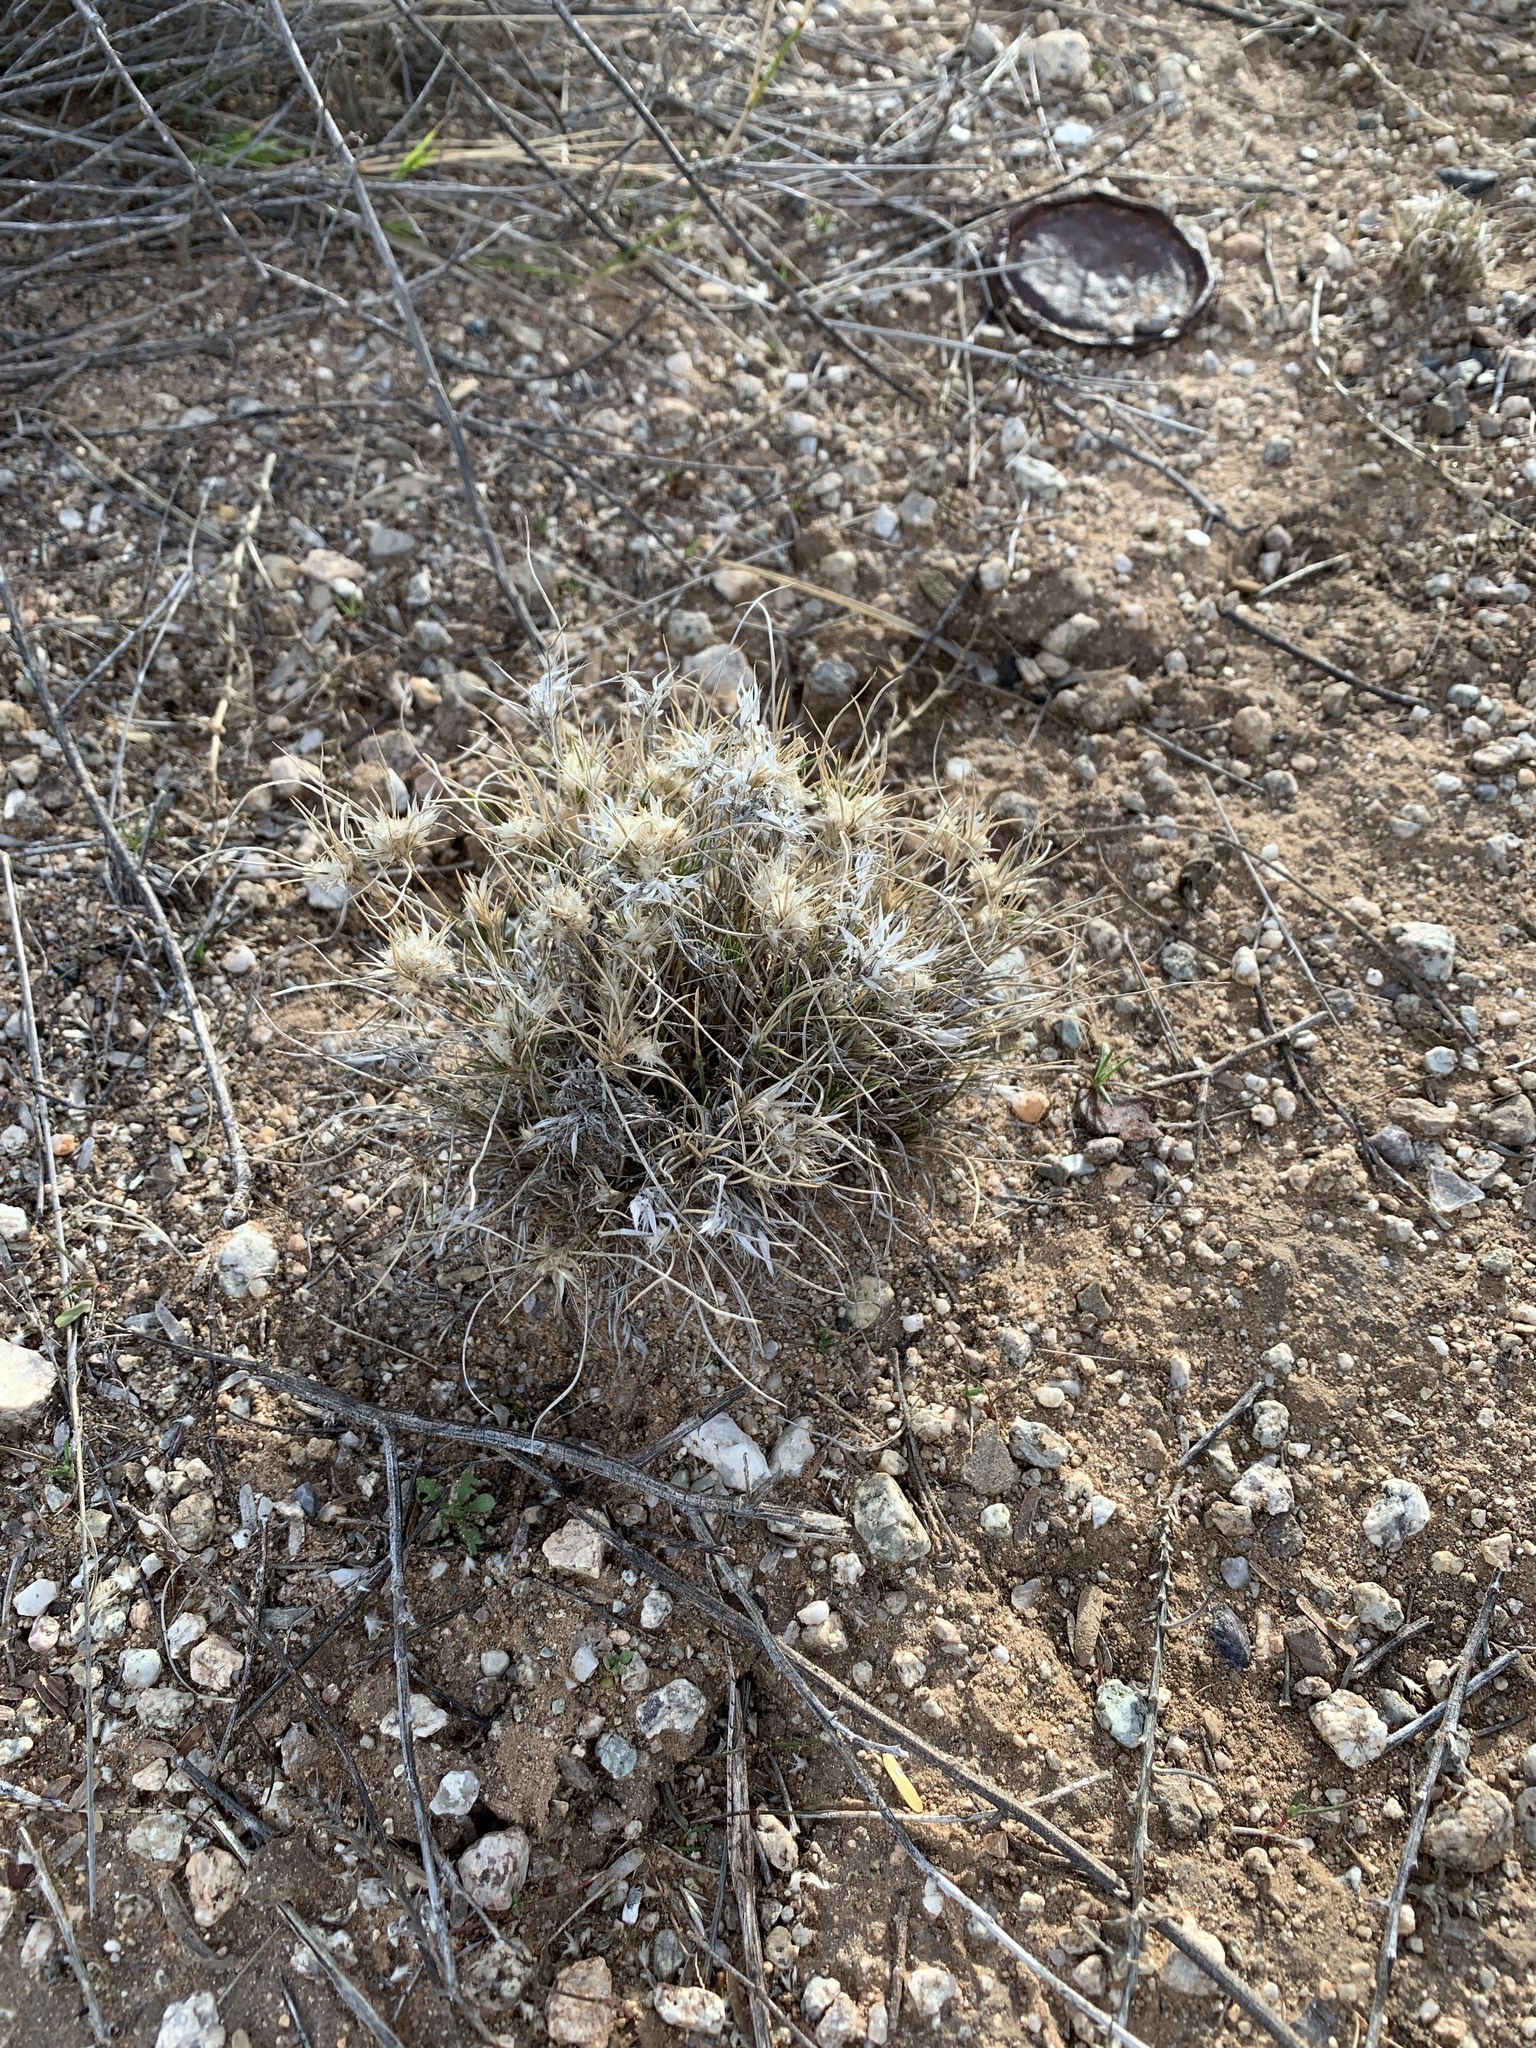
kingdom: Plantae
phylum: Tracheophyta
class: Liliopsida
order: Poales
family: Poaceae
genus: Dasyochloa
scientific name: Dasyochloa pulchella
